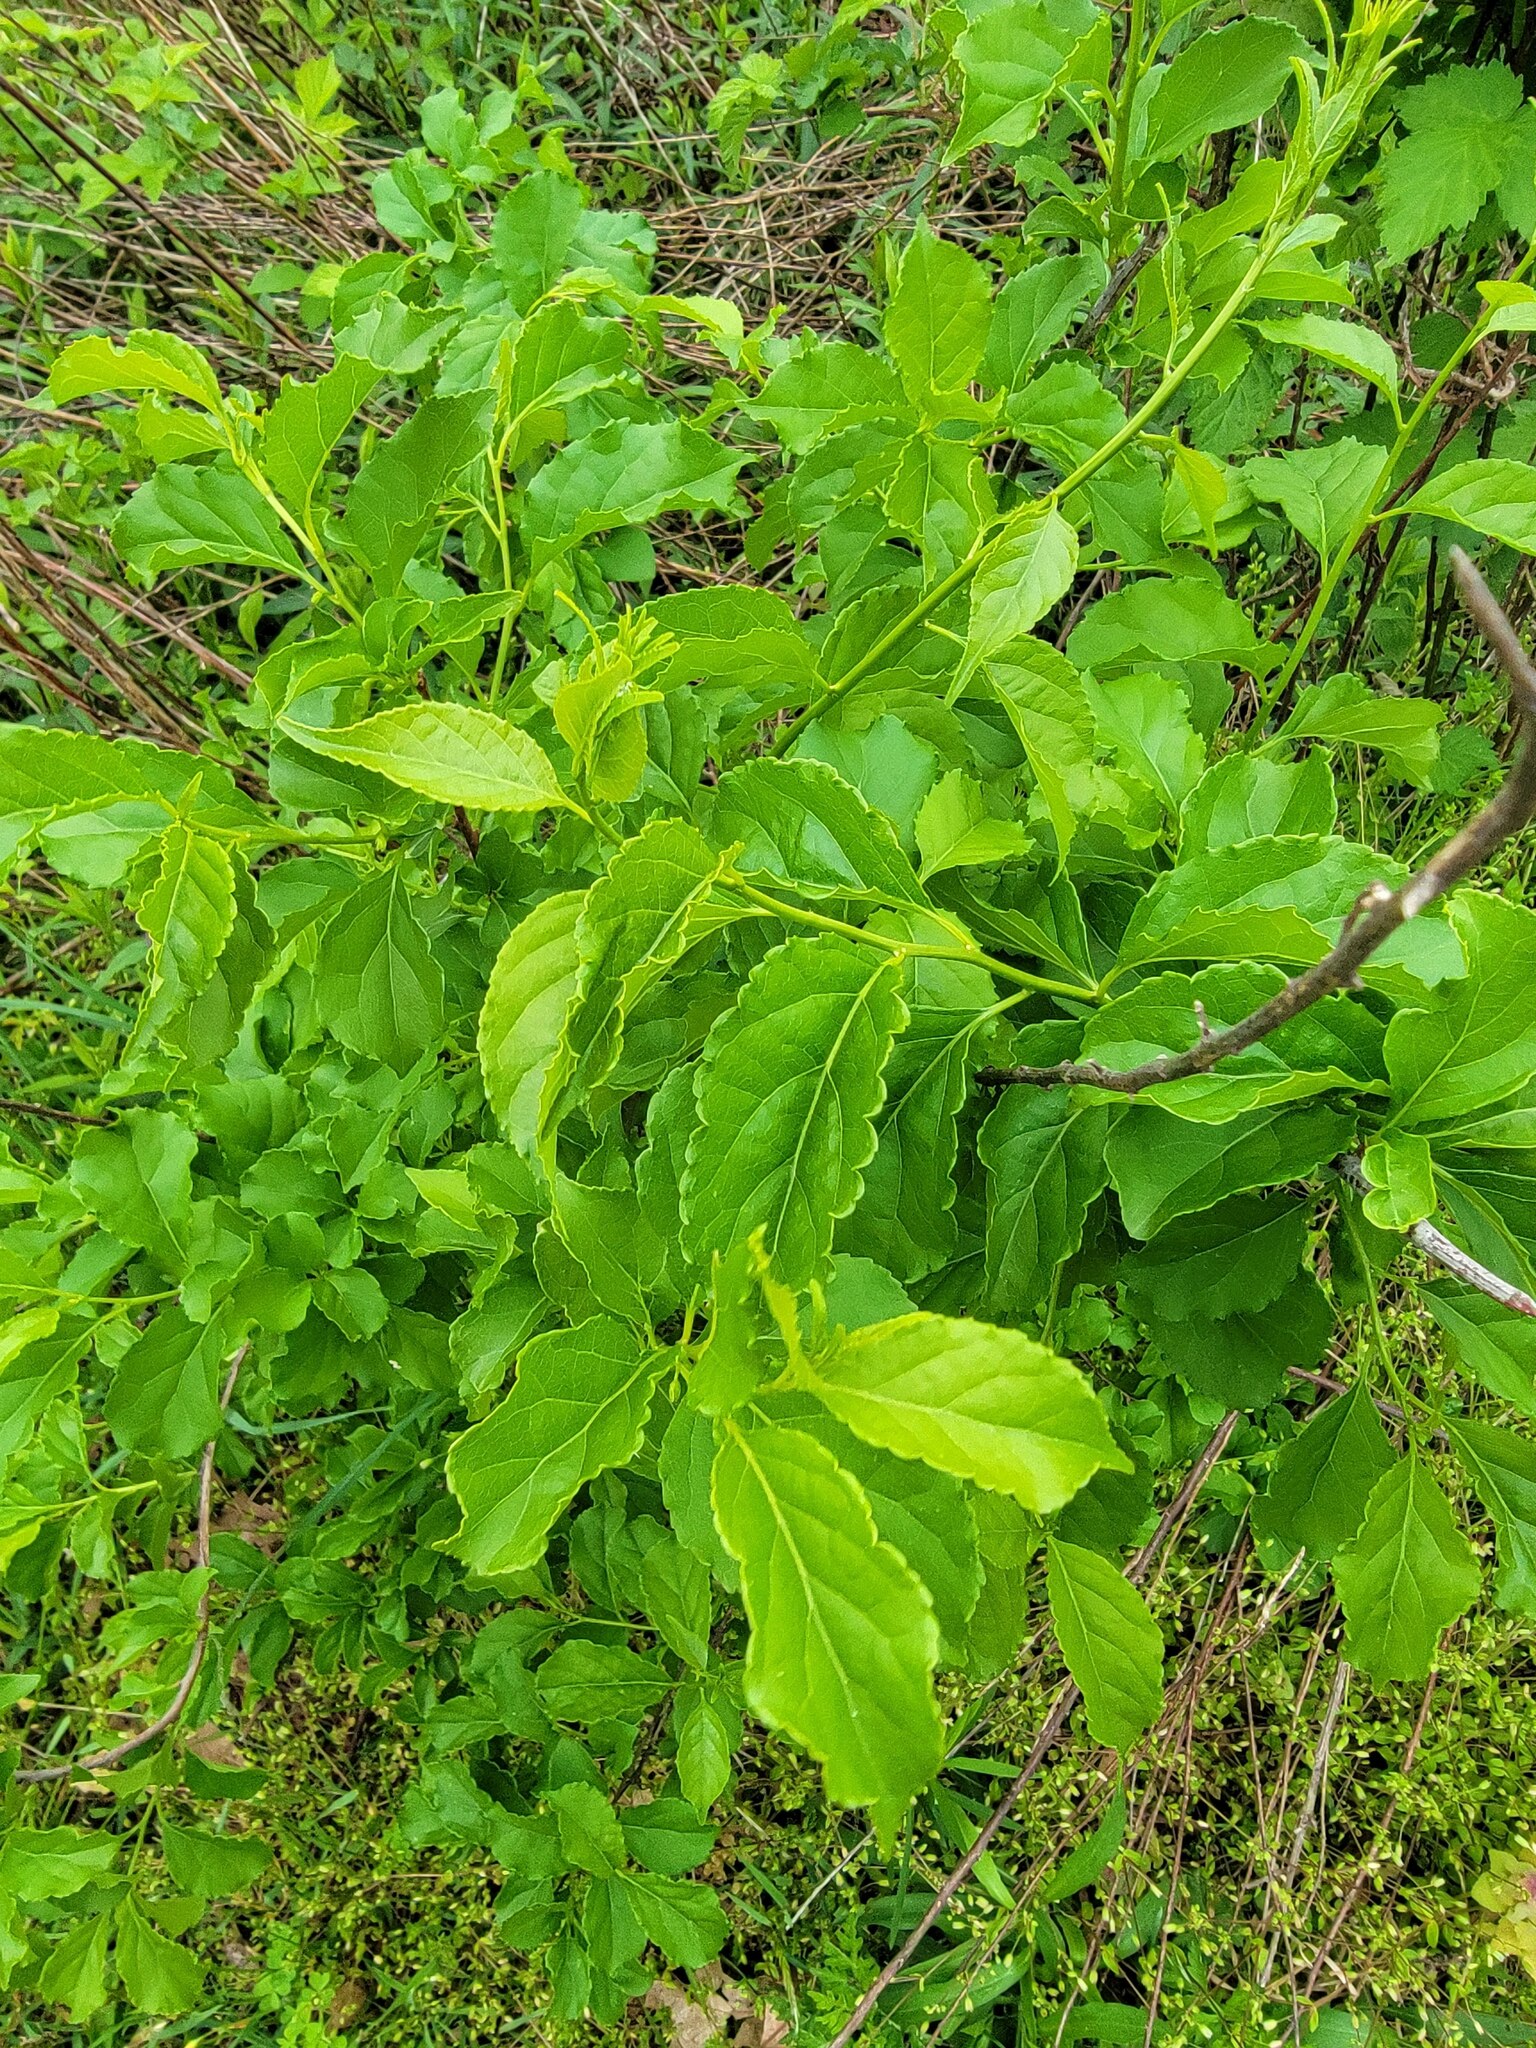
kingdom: Plantae
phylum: Tracheophyta
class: Magnoliopsida
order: Celastrales
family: Celastraceae
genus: Celastrus
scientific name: Celastrus orbiculatus
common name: Oriental bittersweet
